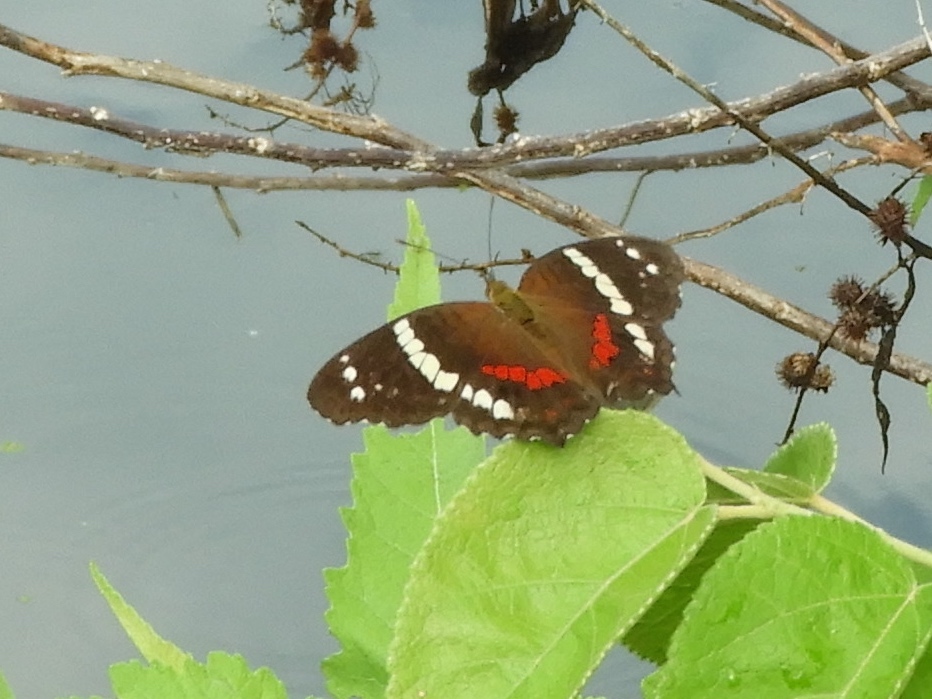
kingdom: Animalia
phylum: Arthropoda
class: Insecta
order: Lepidoptera
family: Nymphalidae
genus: Anartia
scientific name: Anartia fatima
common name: Banded peacock
